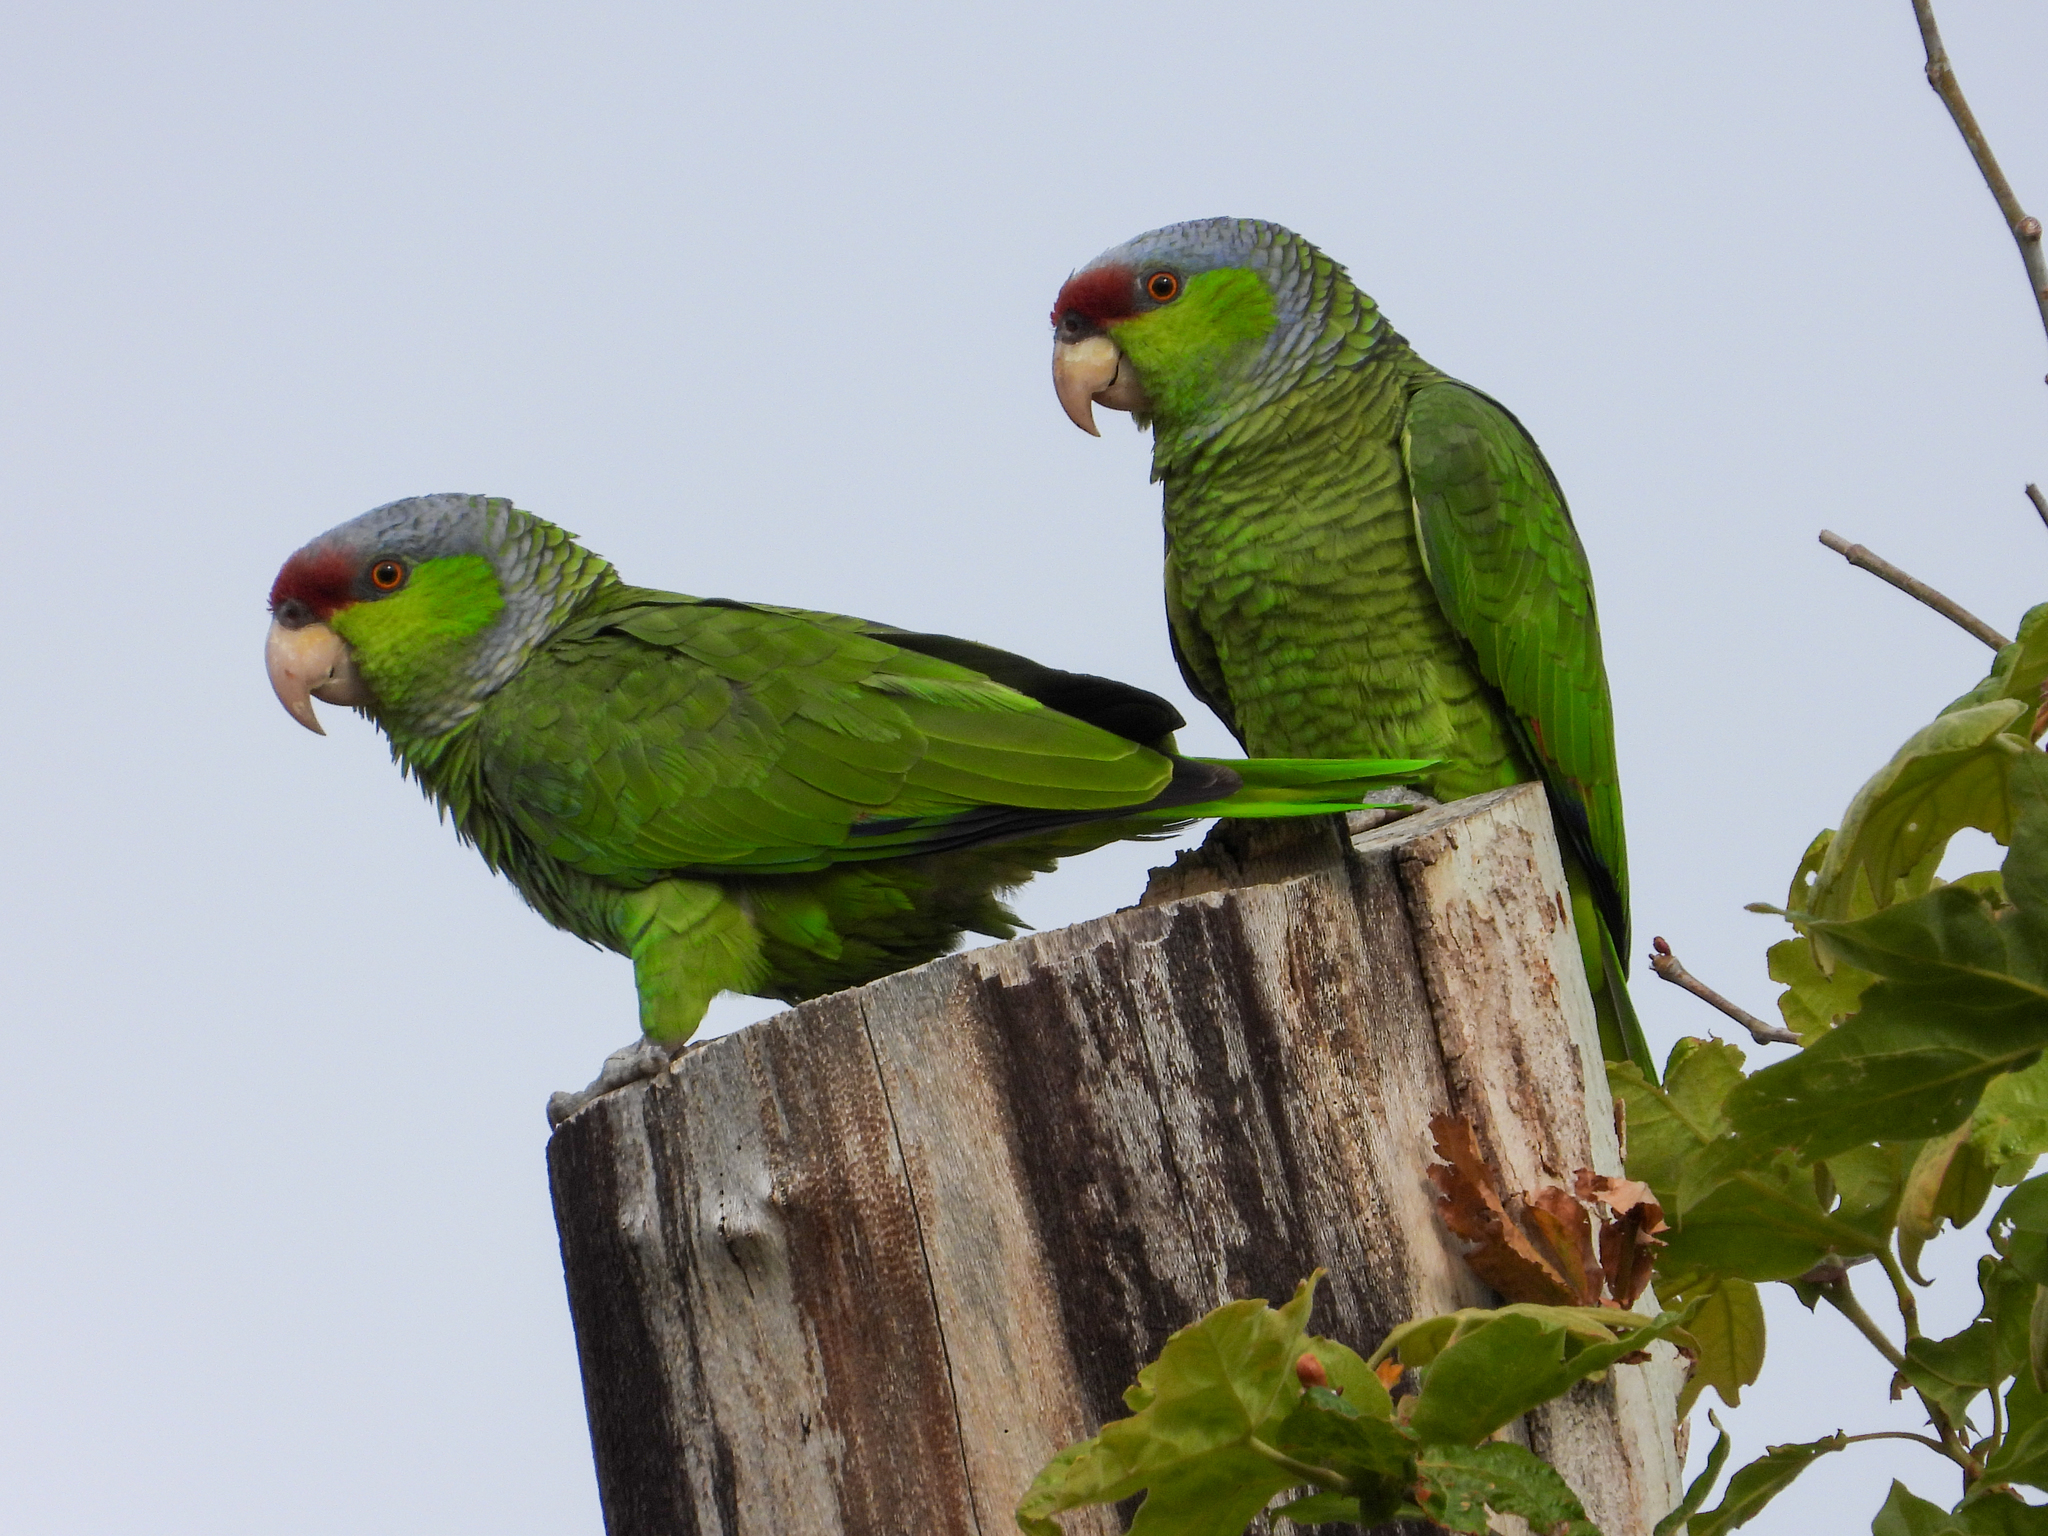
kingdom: Animalia
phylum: Chordata
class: Aves
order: Psittaciformes
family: Psittacidae
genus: Amazona
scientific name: Amazona finschi
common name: Lilac-crowned amazon
